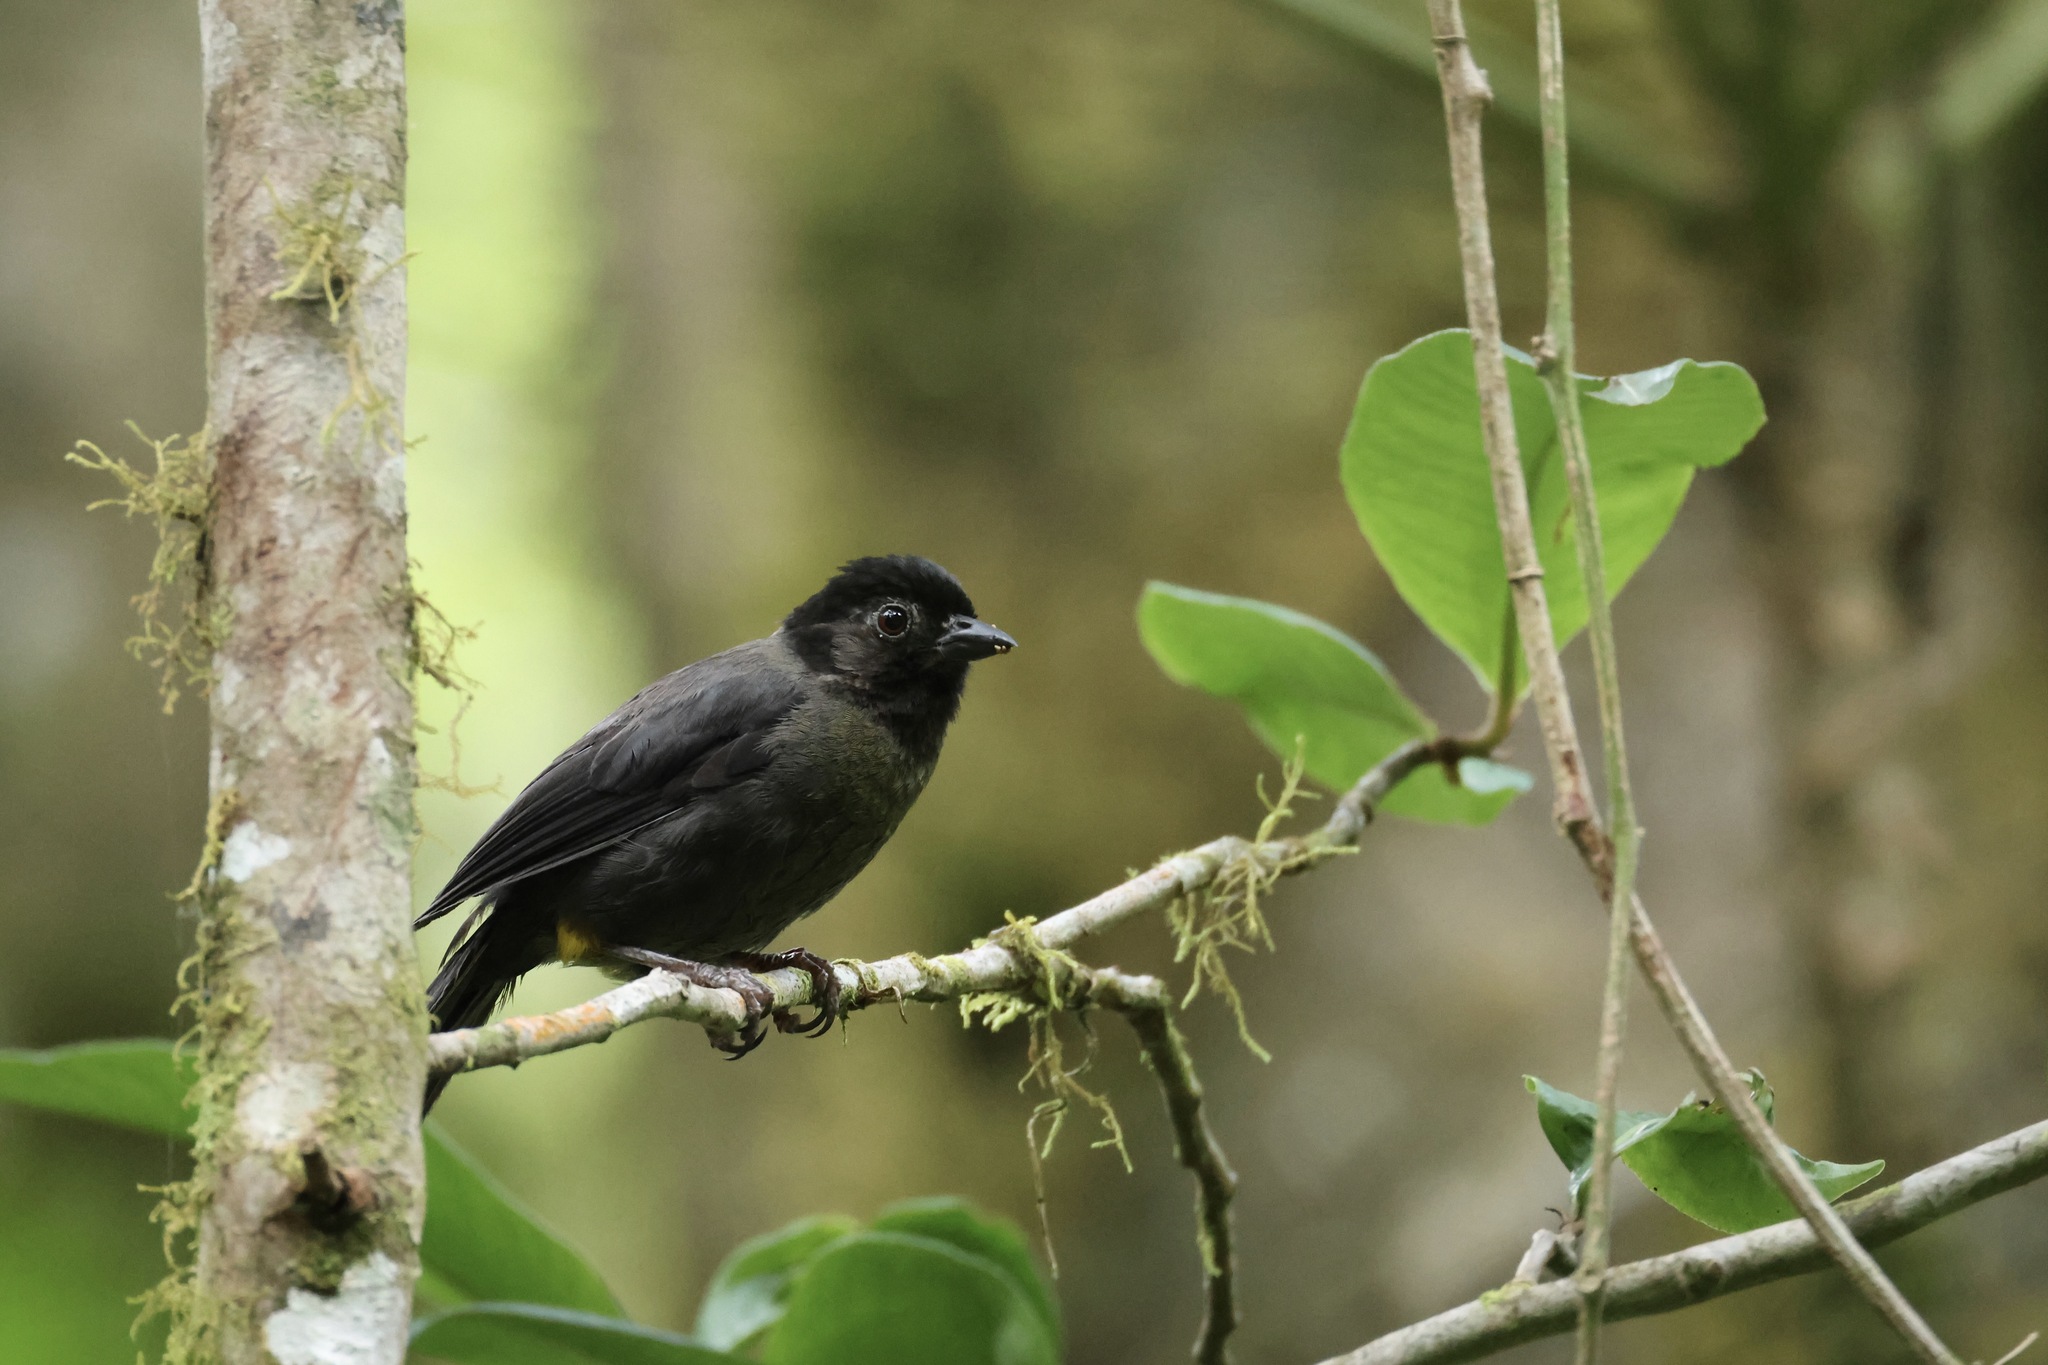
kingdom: Animalia
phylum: Chordata
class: Aves
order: Passeriformes
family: Passerellidae
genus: Atlapetes
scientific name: Atlapetes tibialis
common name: Yellow-thighed brushfinch
